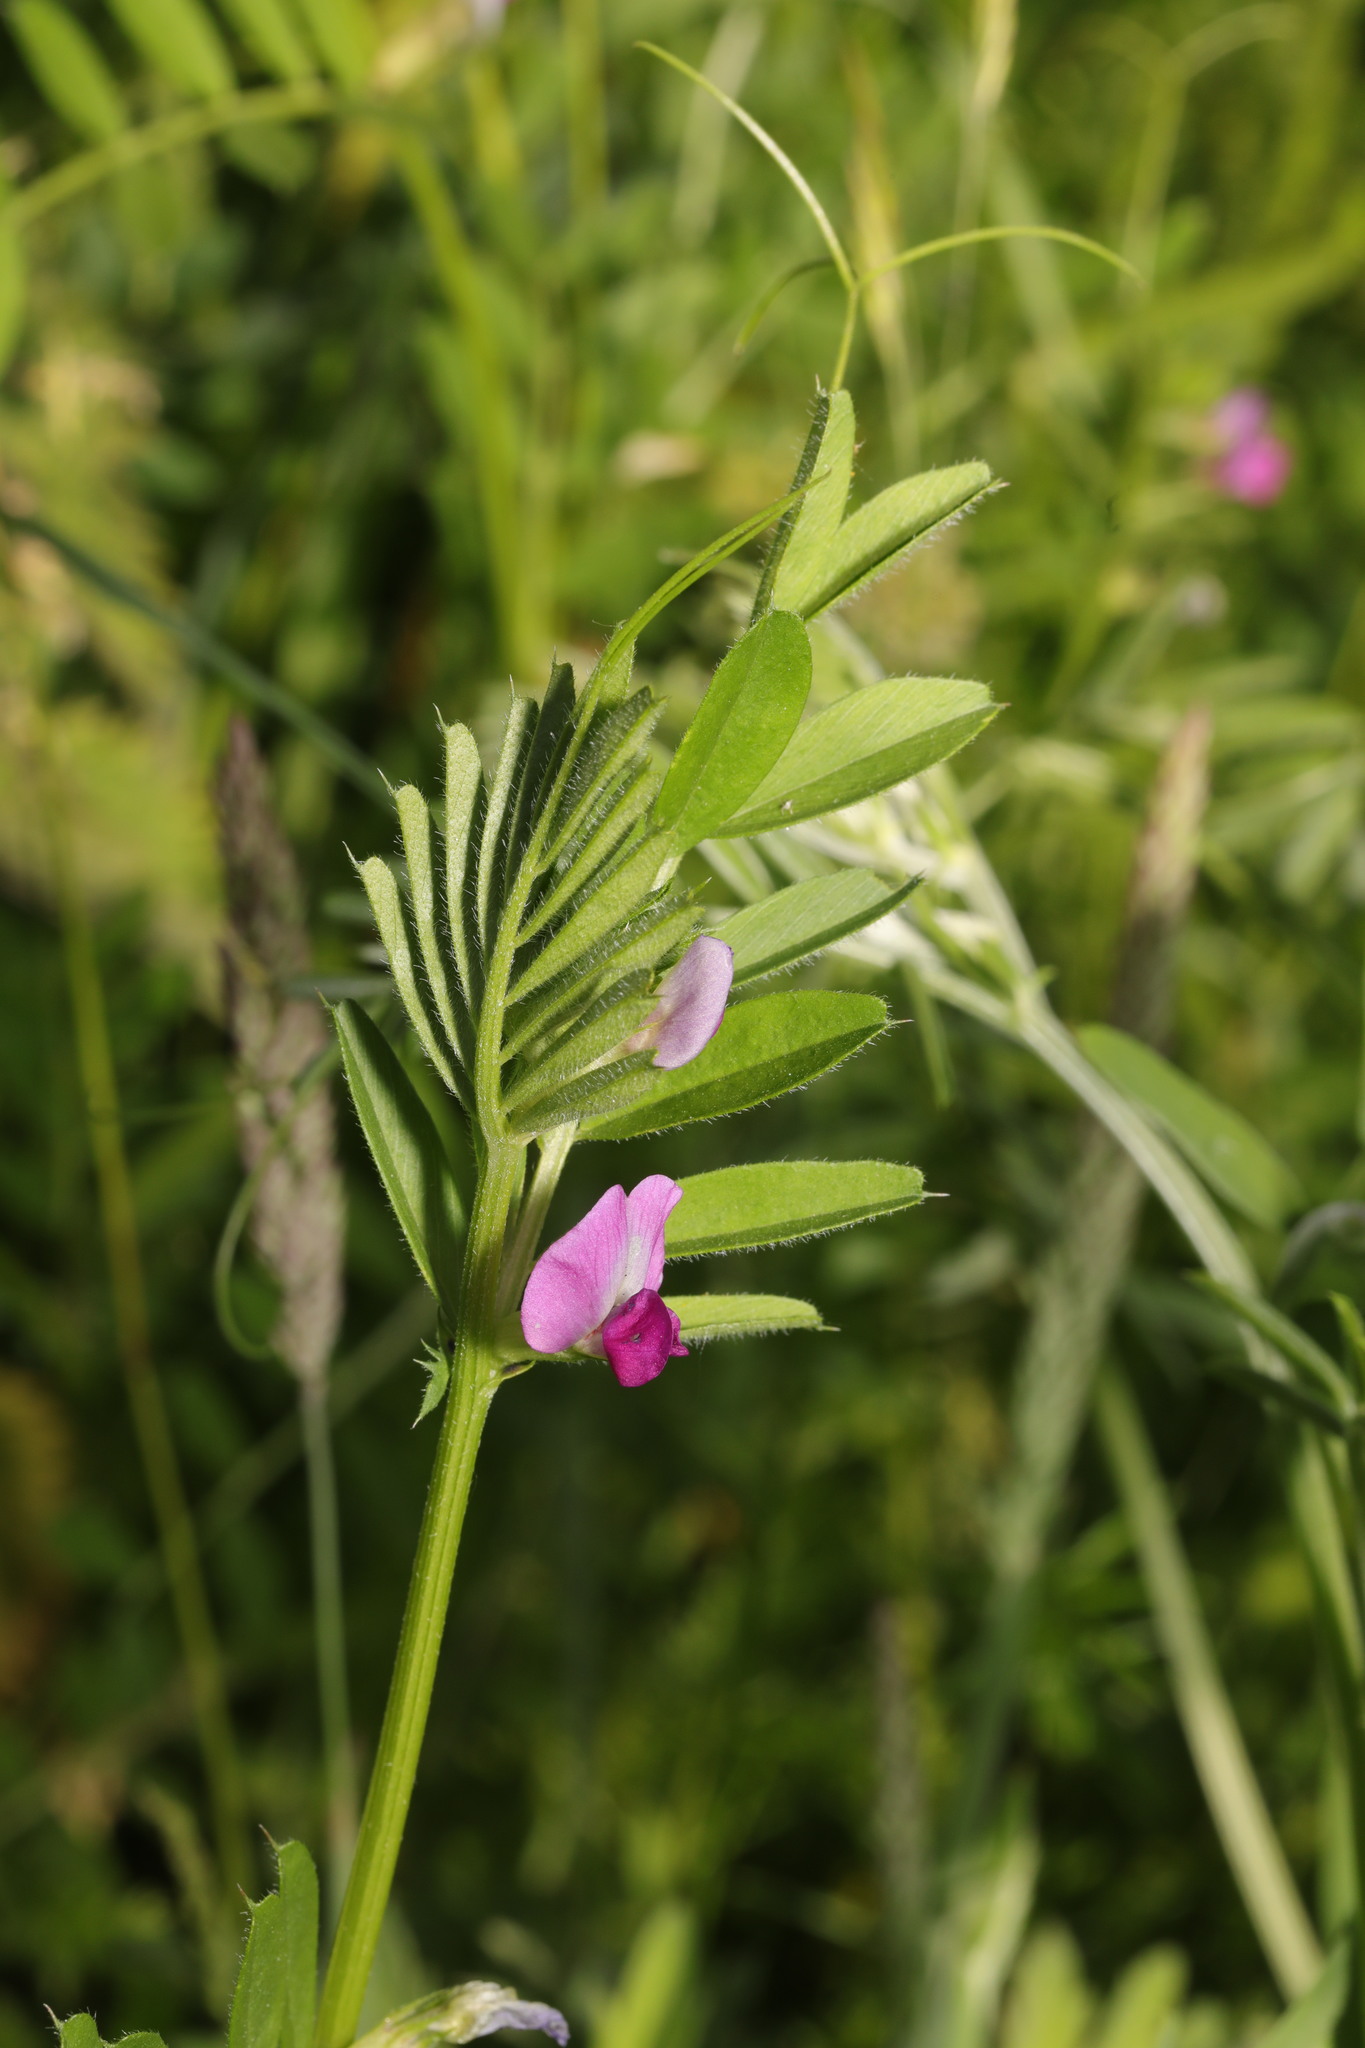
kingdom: Plantae
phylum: Tracheophyta
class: Magnoliopsida
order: Fabales
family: Fabaceae
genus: Vicia
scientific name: Vicia sativa
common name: Garden vetch
